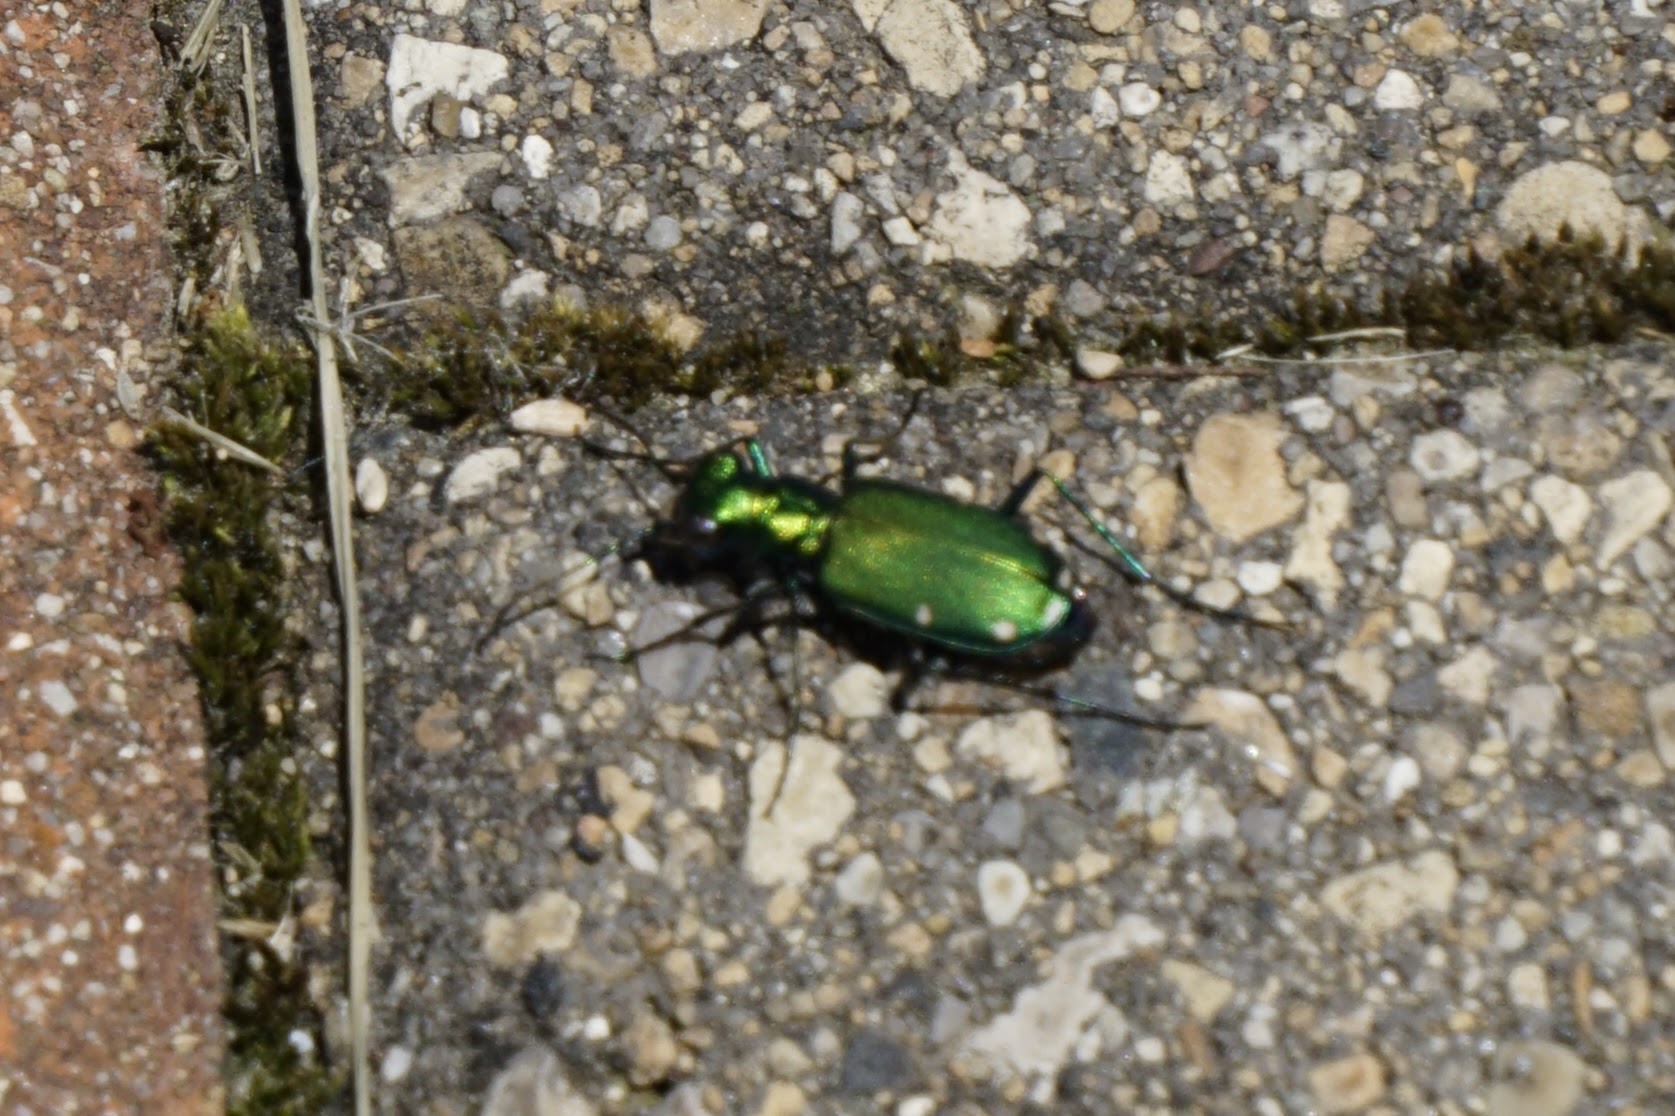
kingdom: Animalia
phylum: Arthropoda
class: Insecta
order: Coleoptera
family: Carabidae
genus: Cicindela
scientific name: Cicindela sexguttata
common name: Six-spotted tiger beetle
